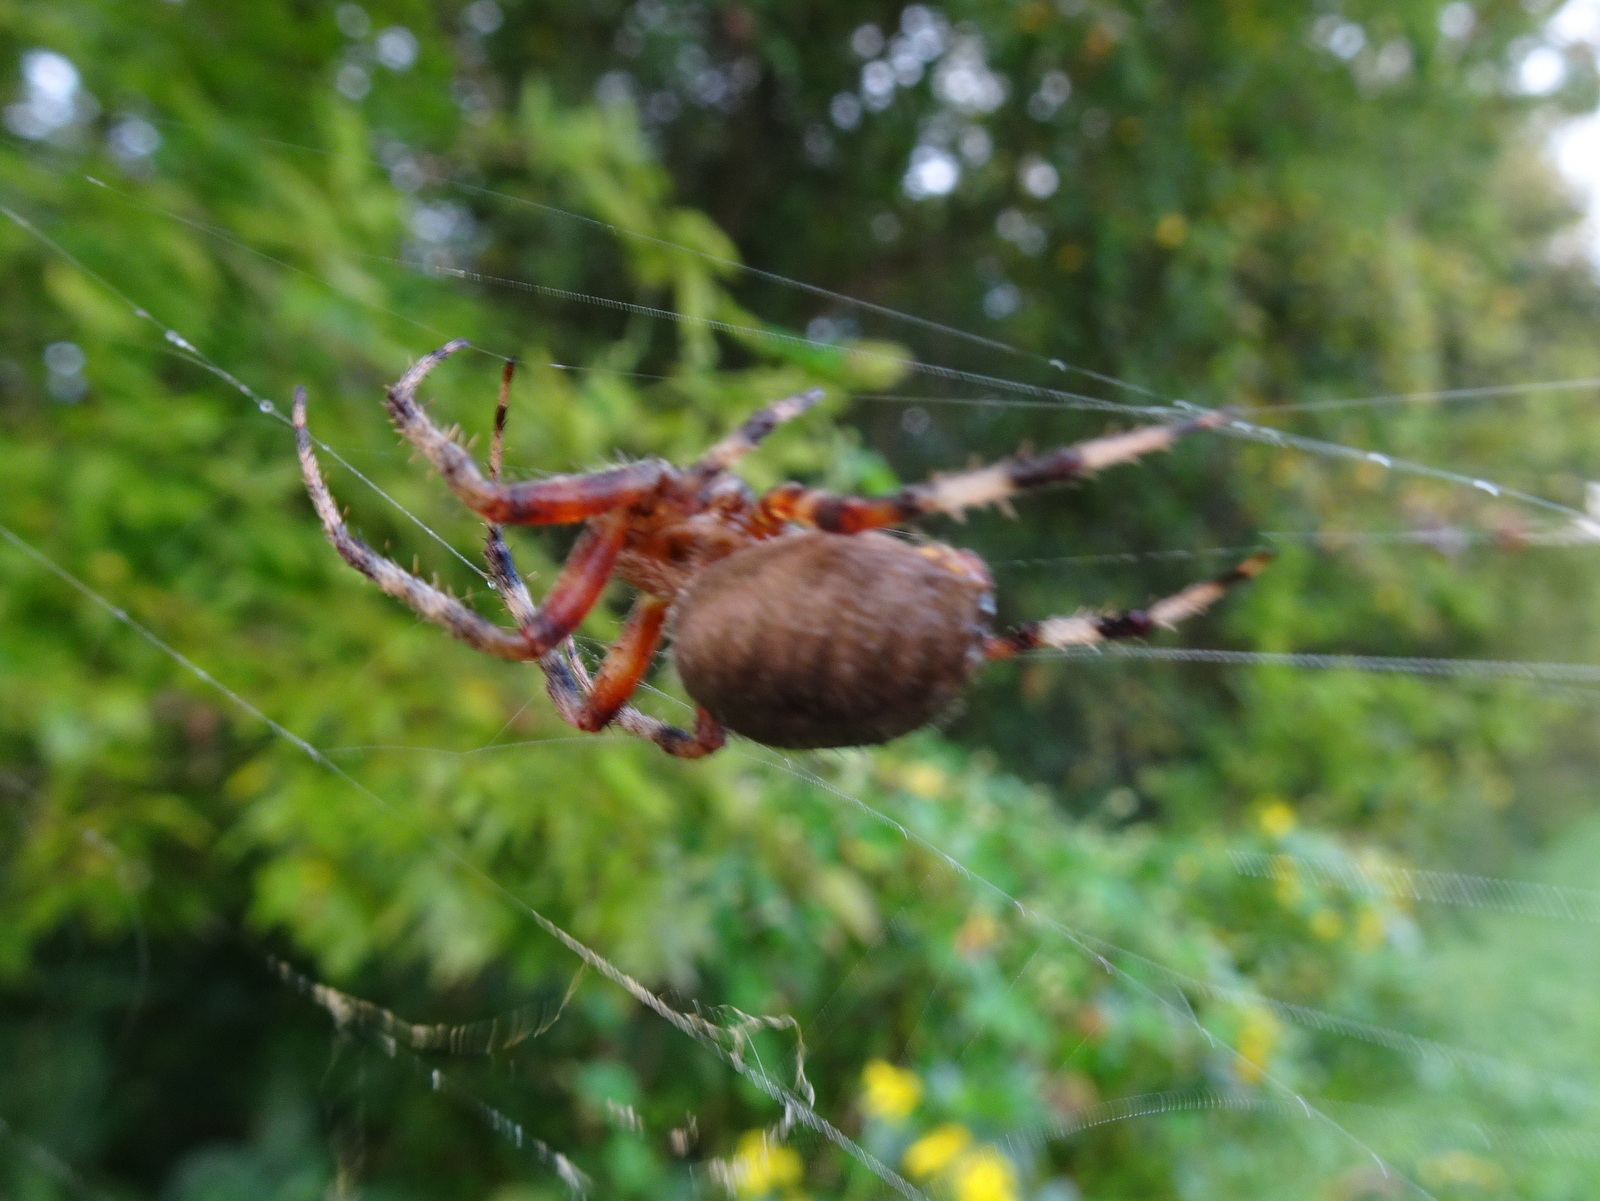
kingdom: Animalia
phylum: Arthropoda
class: Arachnida
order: Araneae
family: Araneidae
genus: Neoscona
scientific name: Neoscona crucifera
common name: Spotted orbweaver
